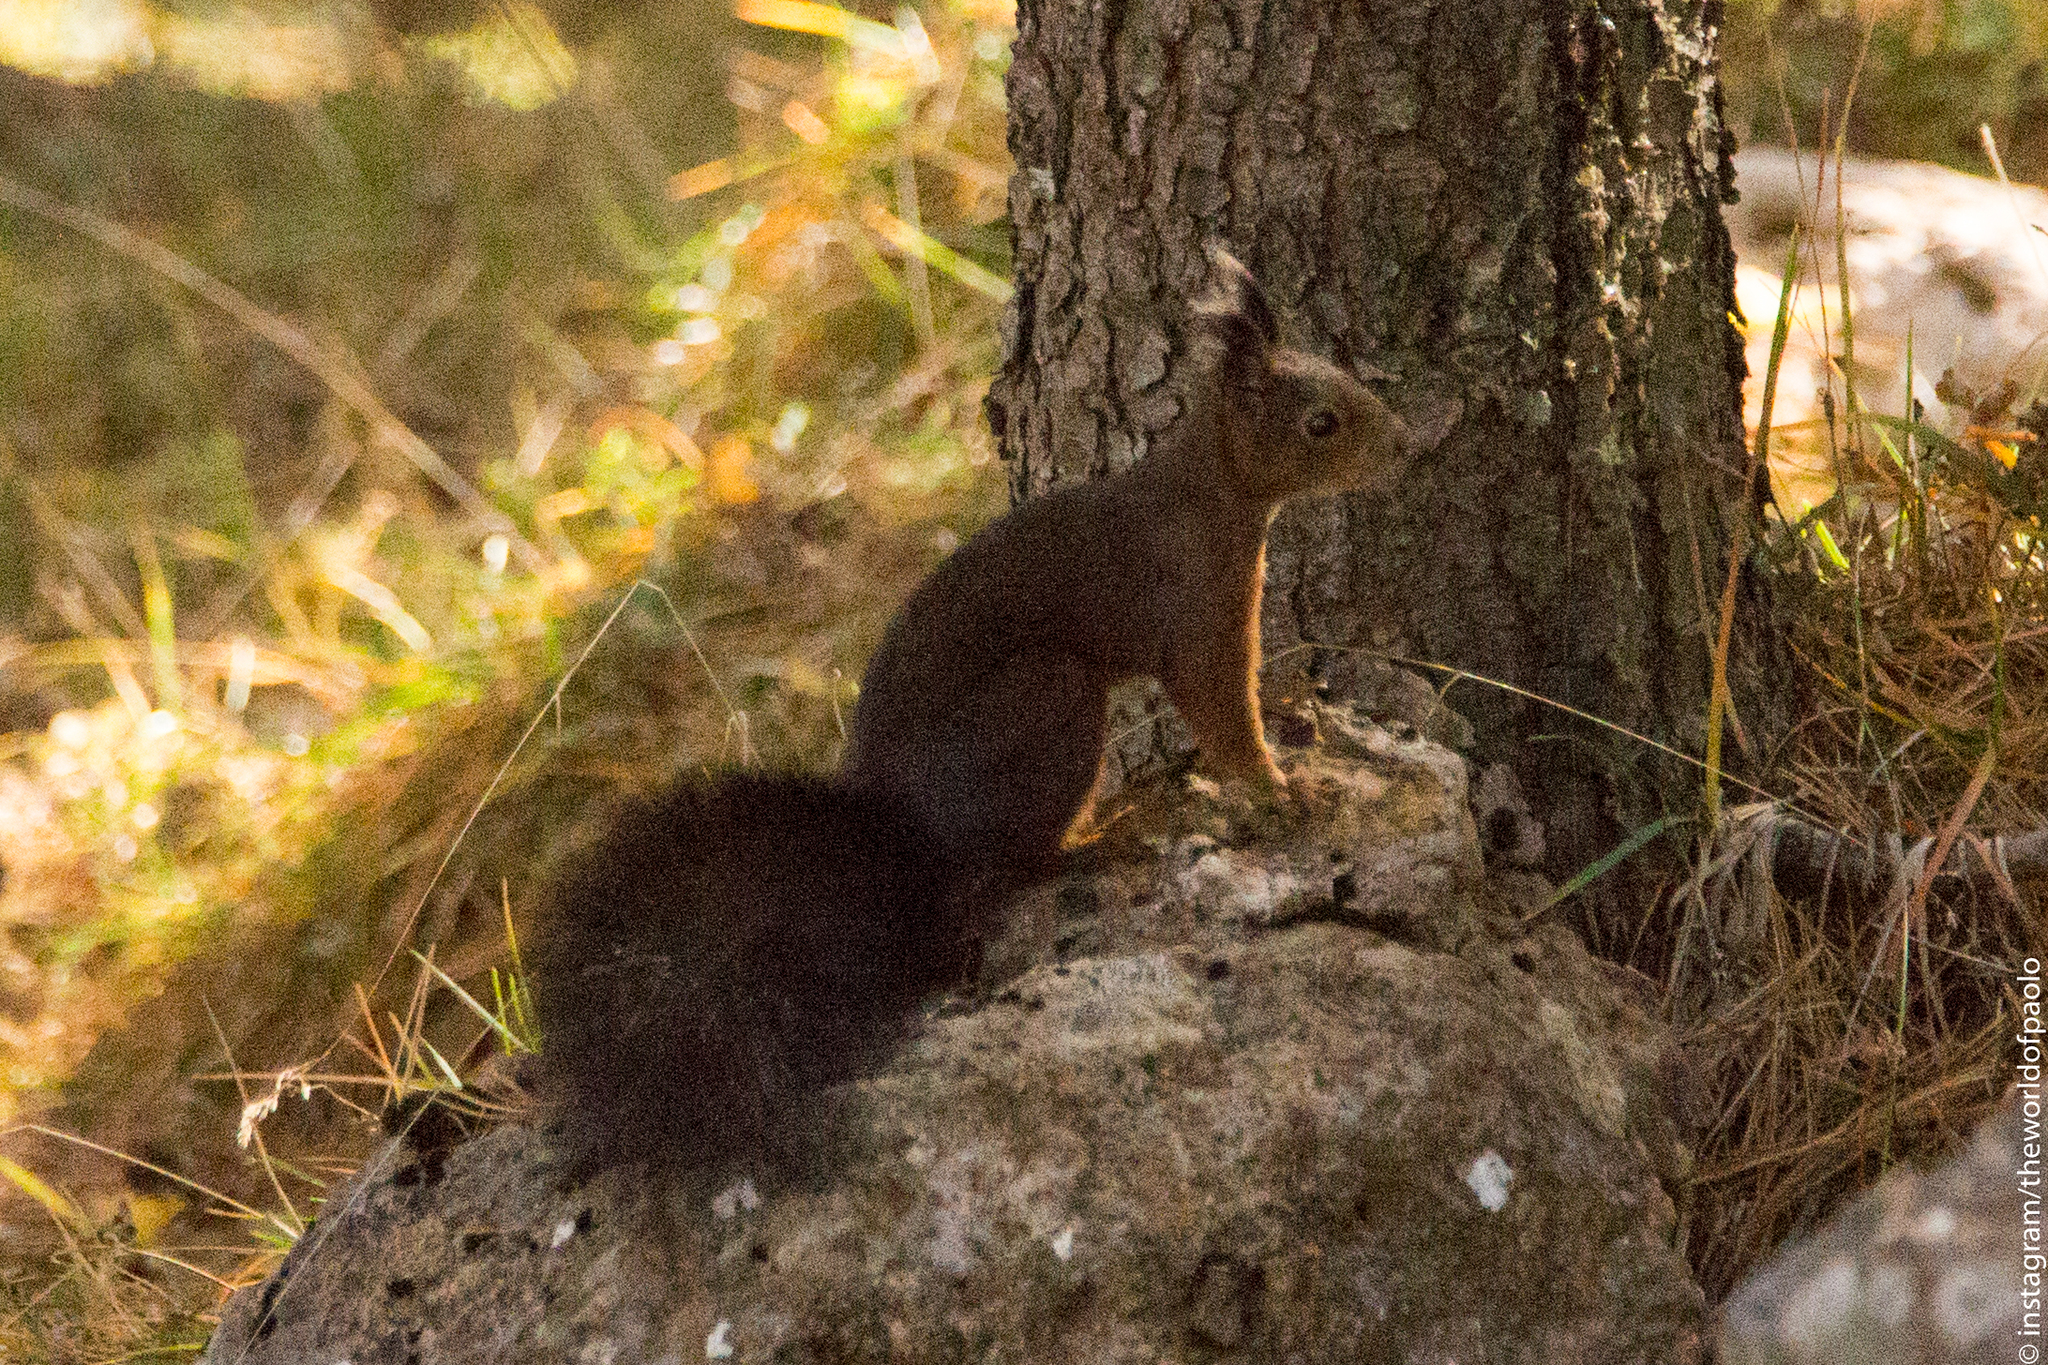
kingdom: Animalia
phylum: Chordata
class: Mammalia
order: Rodentia
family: Sciuridae
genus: Sciurus
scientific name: Sciurus vulgaris
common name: Eurasian red squirrel
